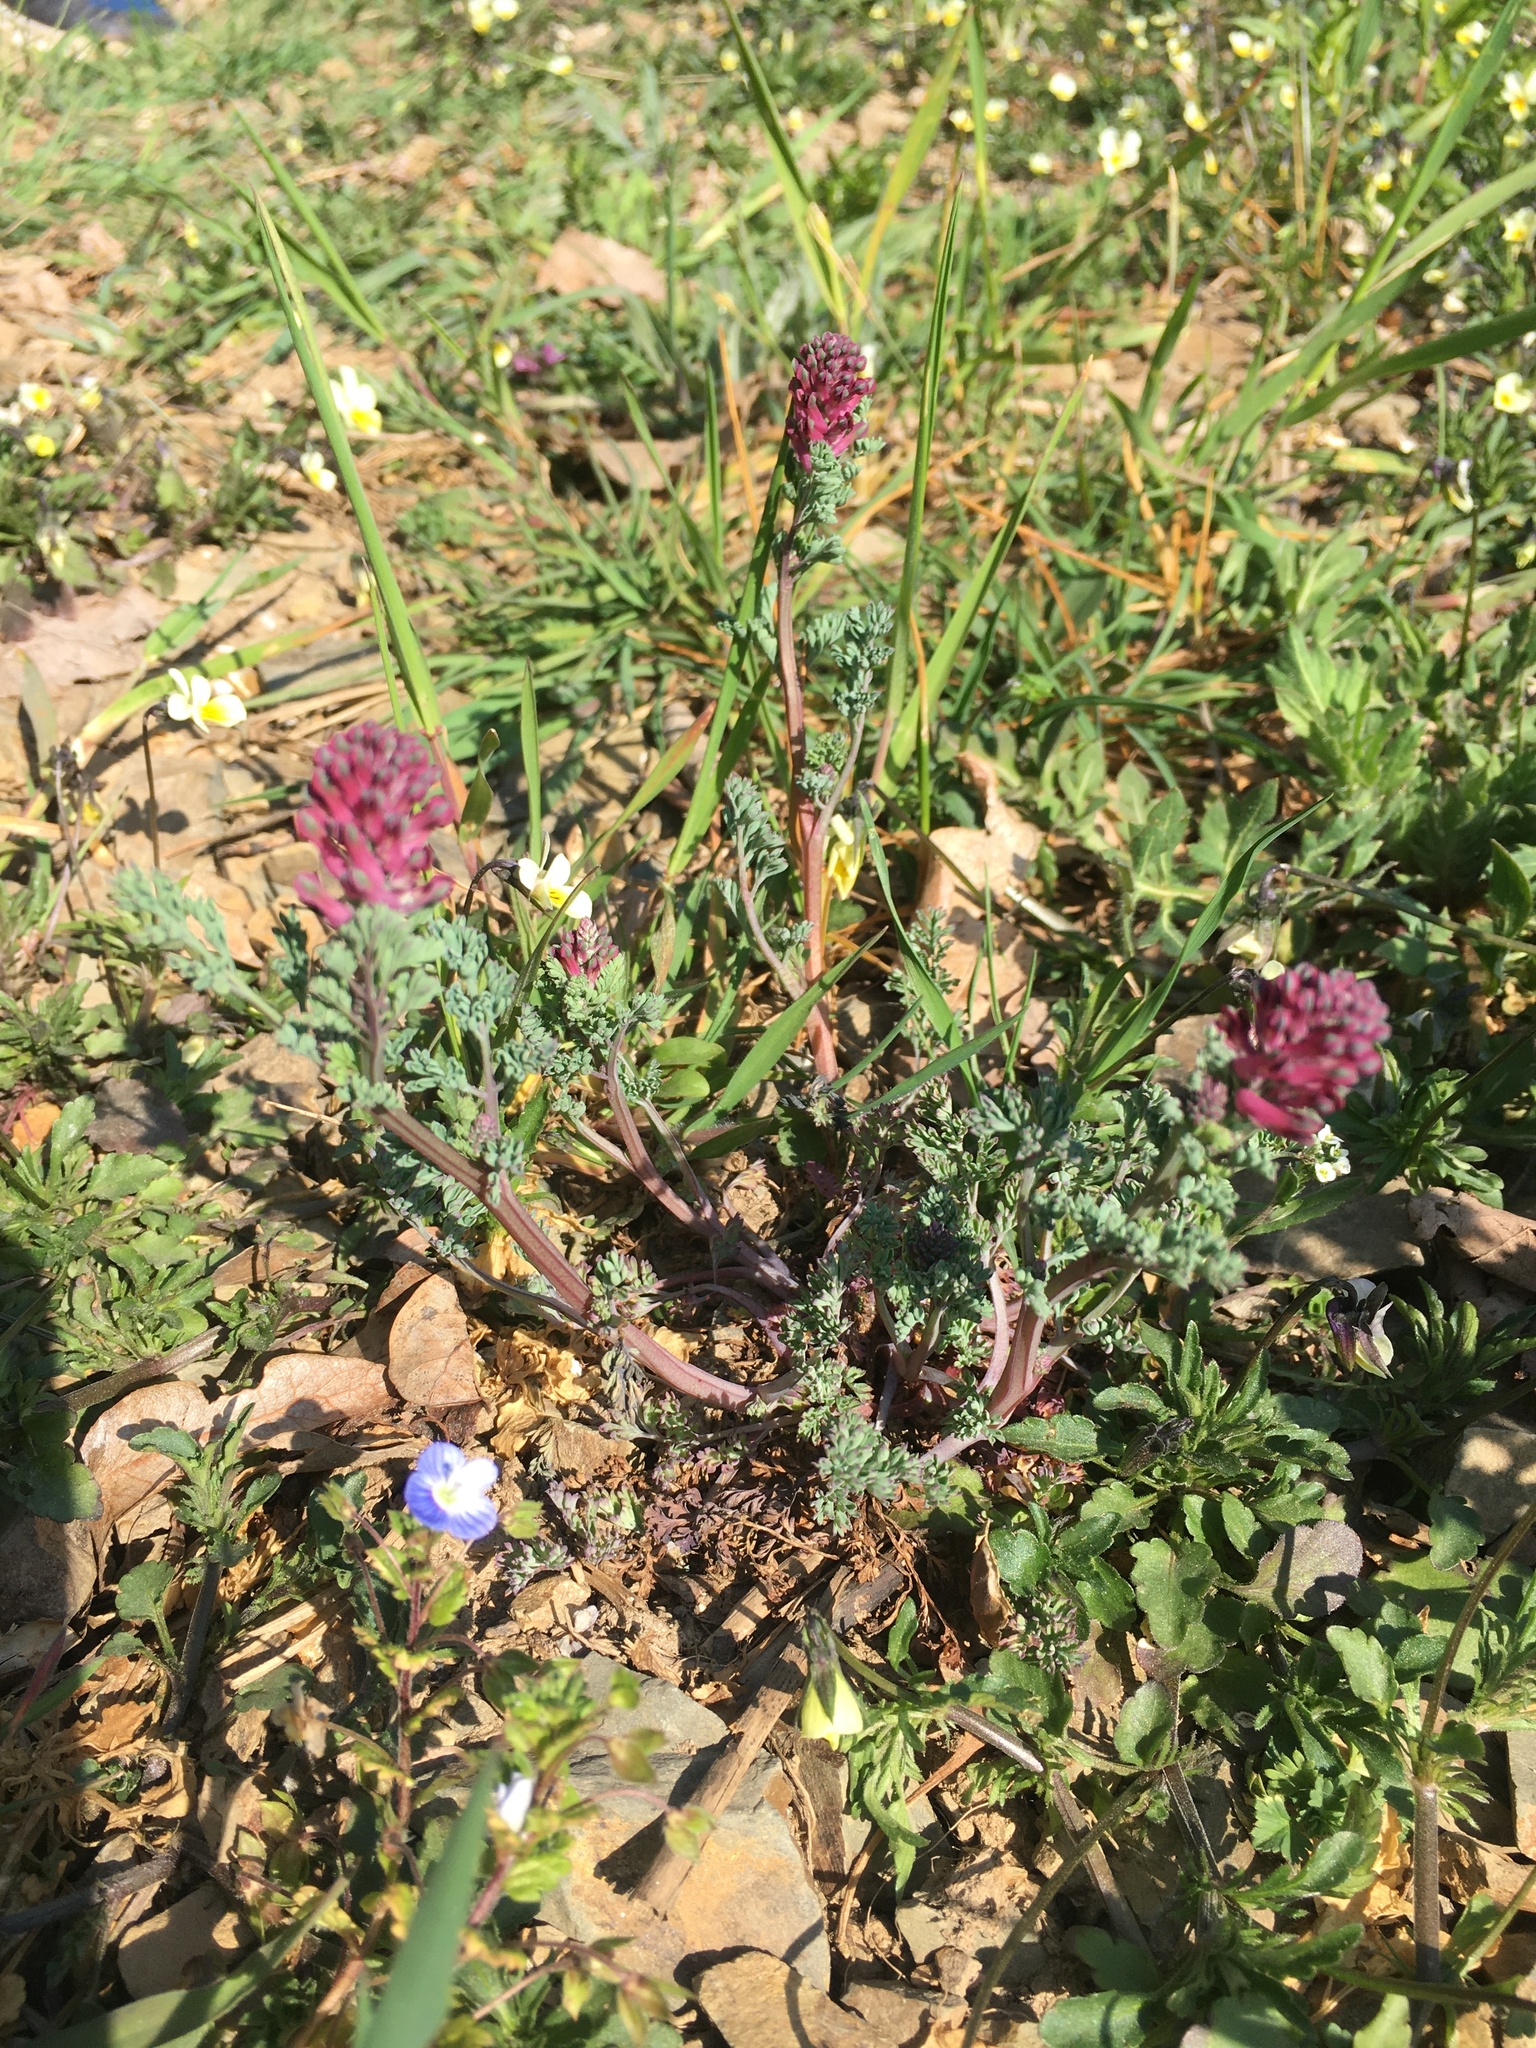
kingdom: Plantae
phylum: Tracheophyta
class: Magnoliopsida
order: Ranunculales
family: Papaveraceae
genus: Fumaria
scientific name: Fumaria officinalis
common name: Common fumitory
